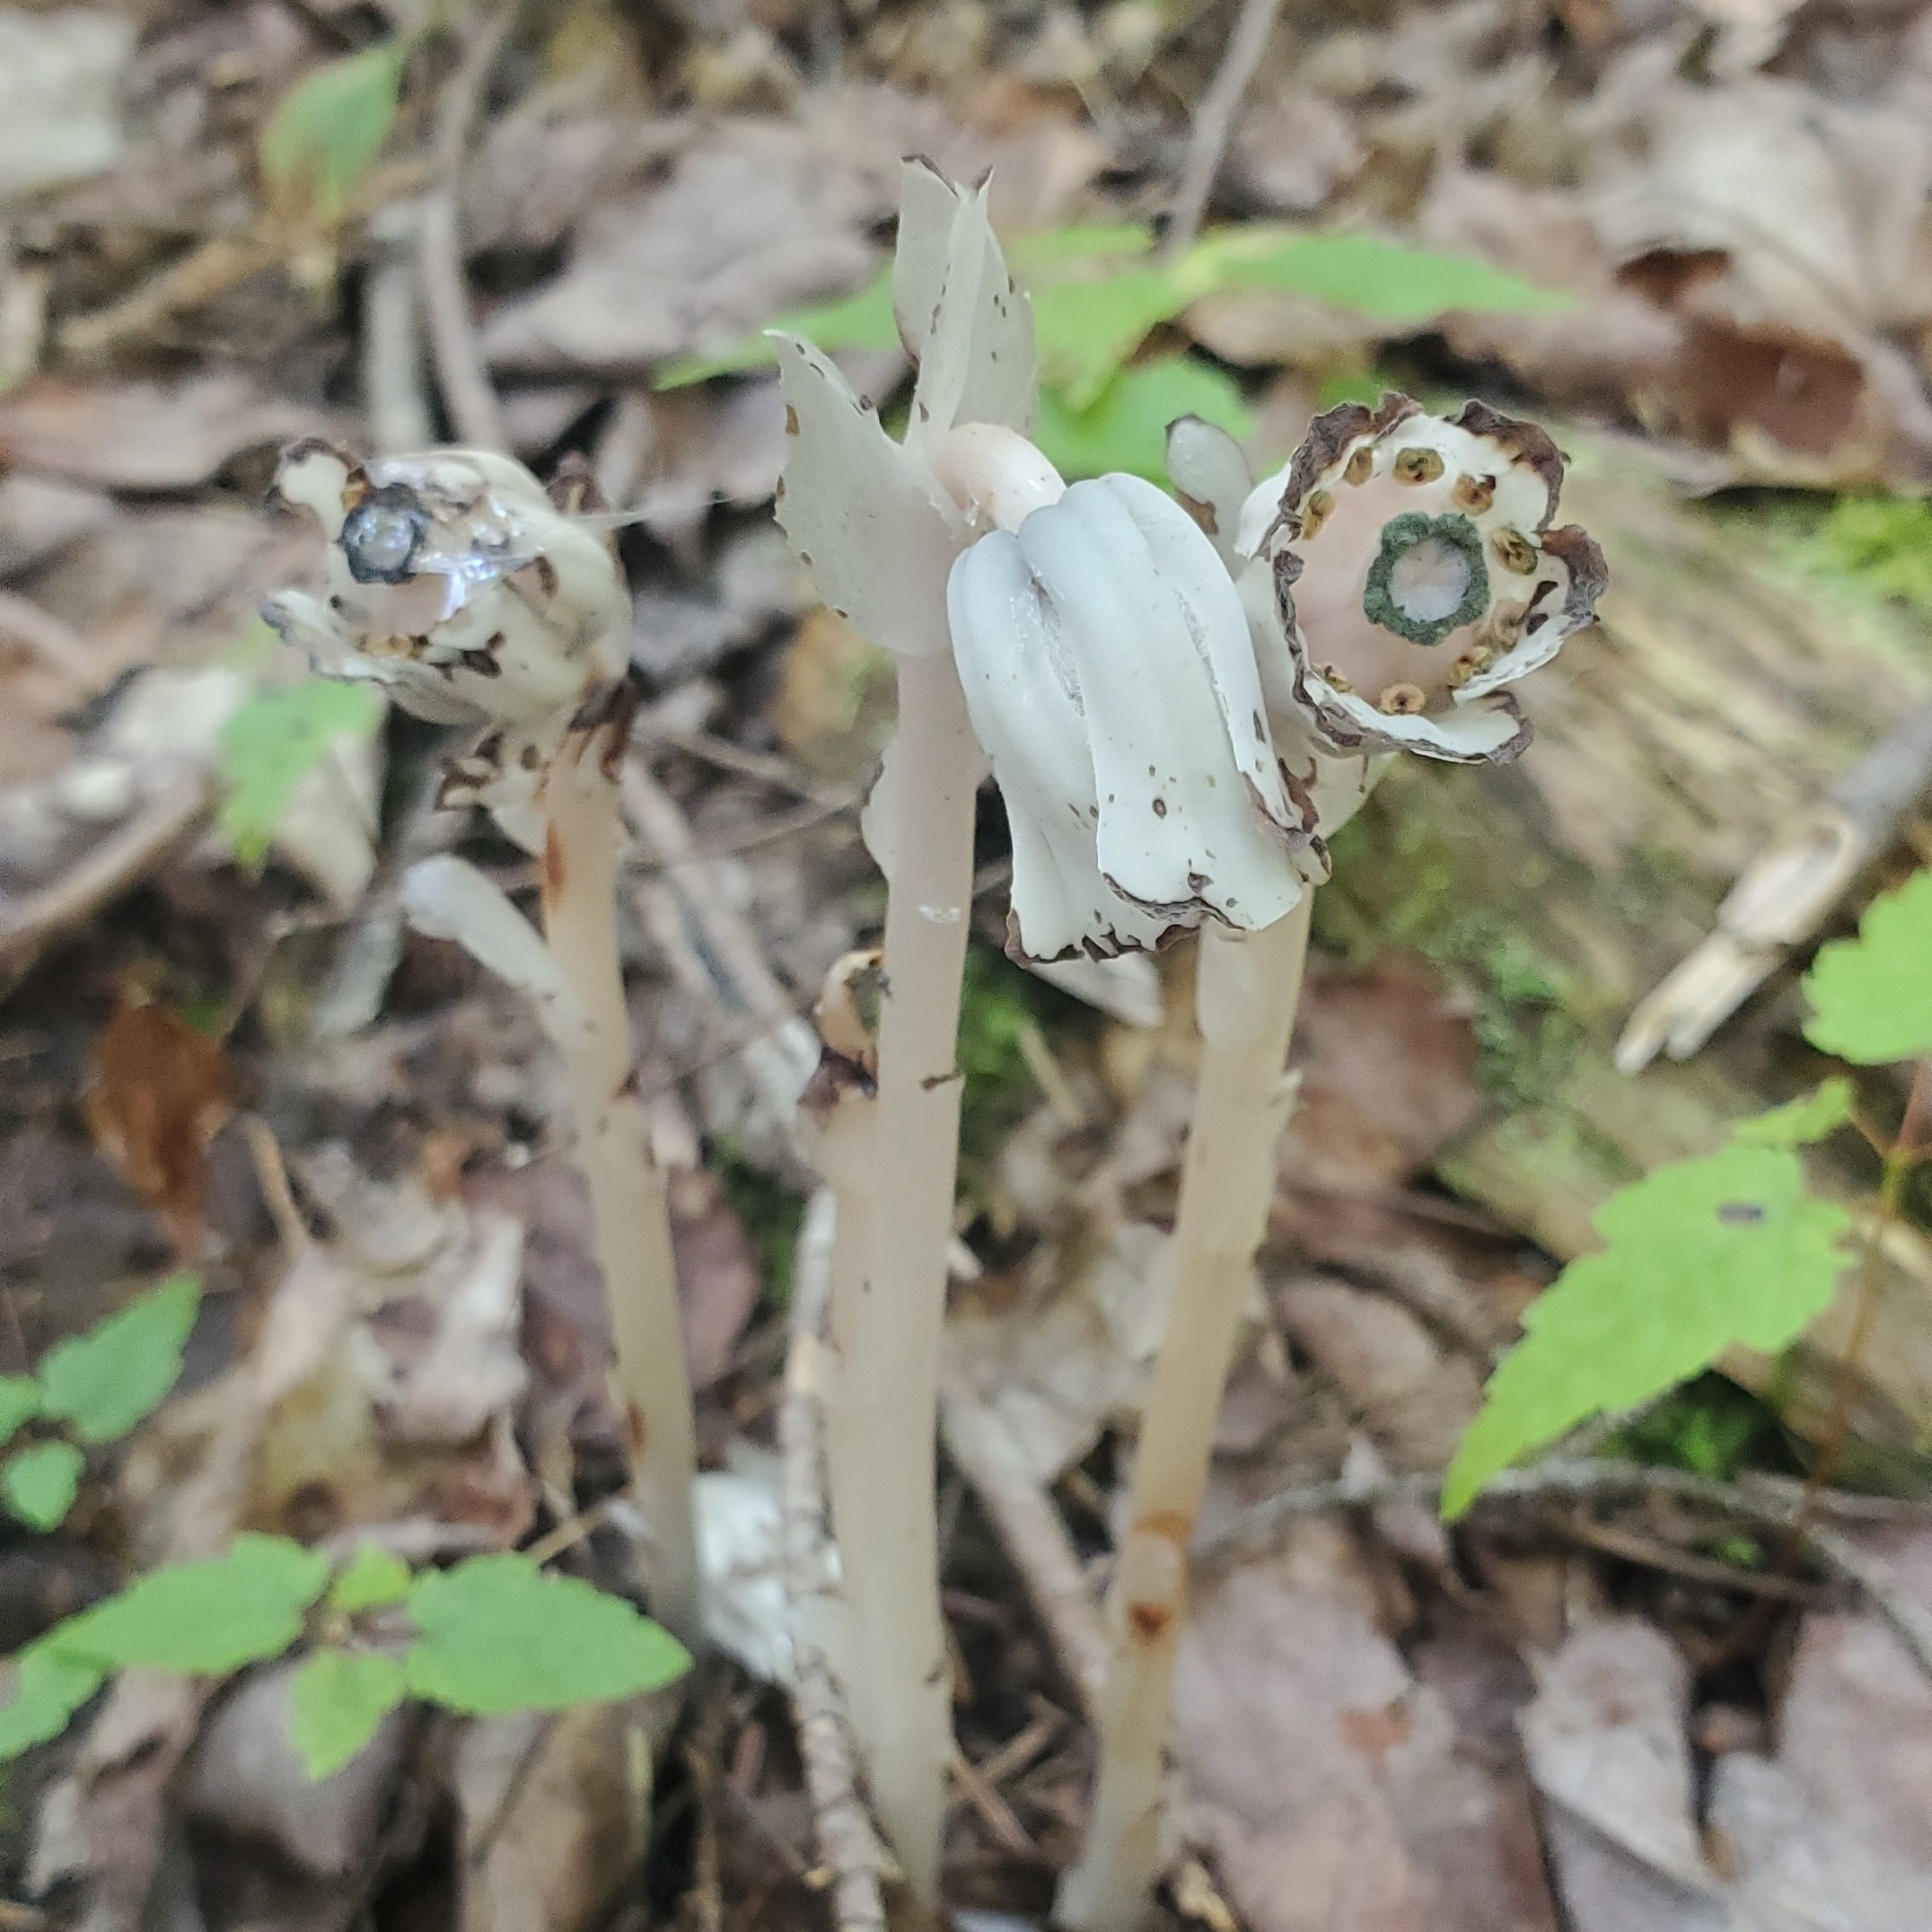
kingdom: Plantae
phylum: Tracheophyta
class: Magnoliopsida
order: Ericales
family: Ericaceae
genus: Monotropa
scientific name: Monotropa uniflora
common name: Convulsion root
